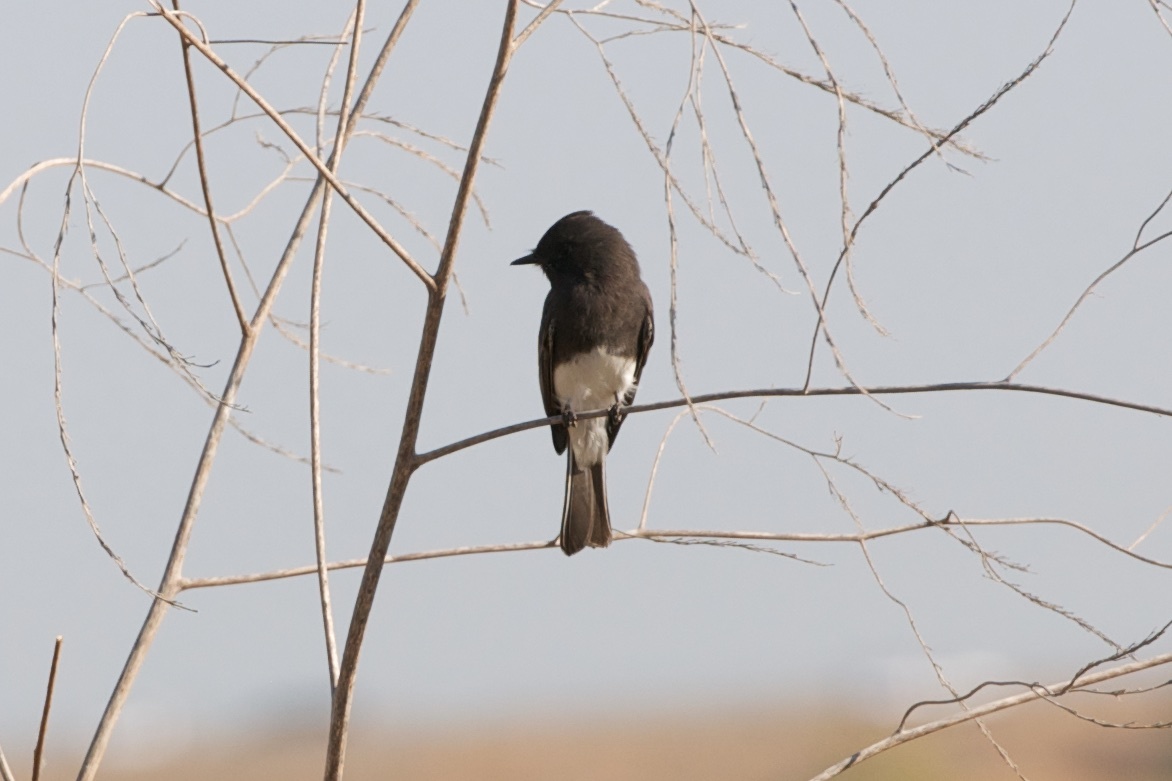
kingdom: Animalia
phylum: Chordata
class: Aves
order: Passeriformes
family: Tyrannidae
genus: Sayornis
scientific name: Sayornis nigricans
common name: Black phoebe
